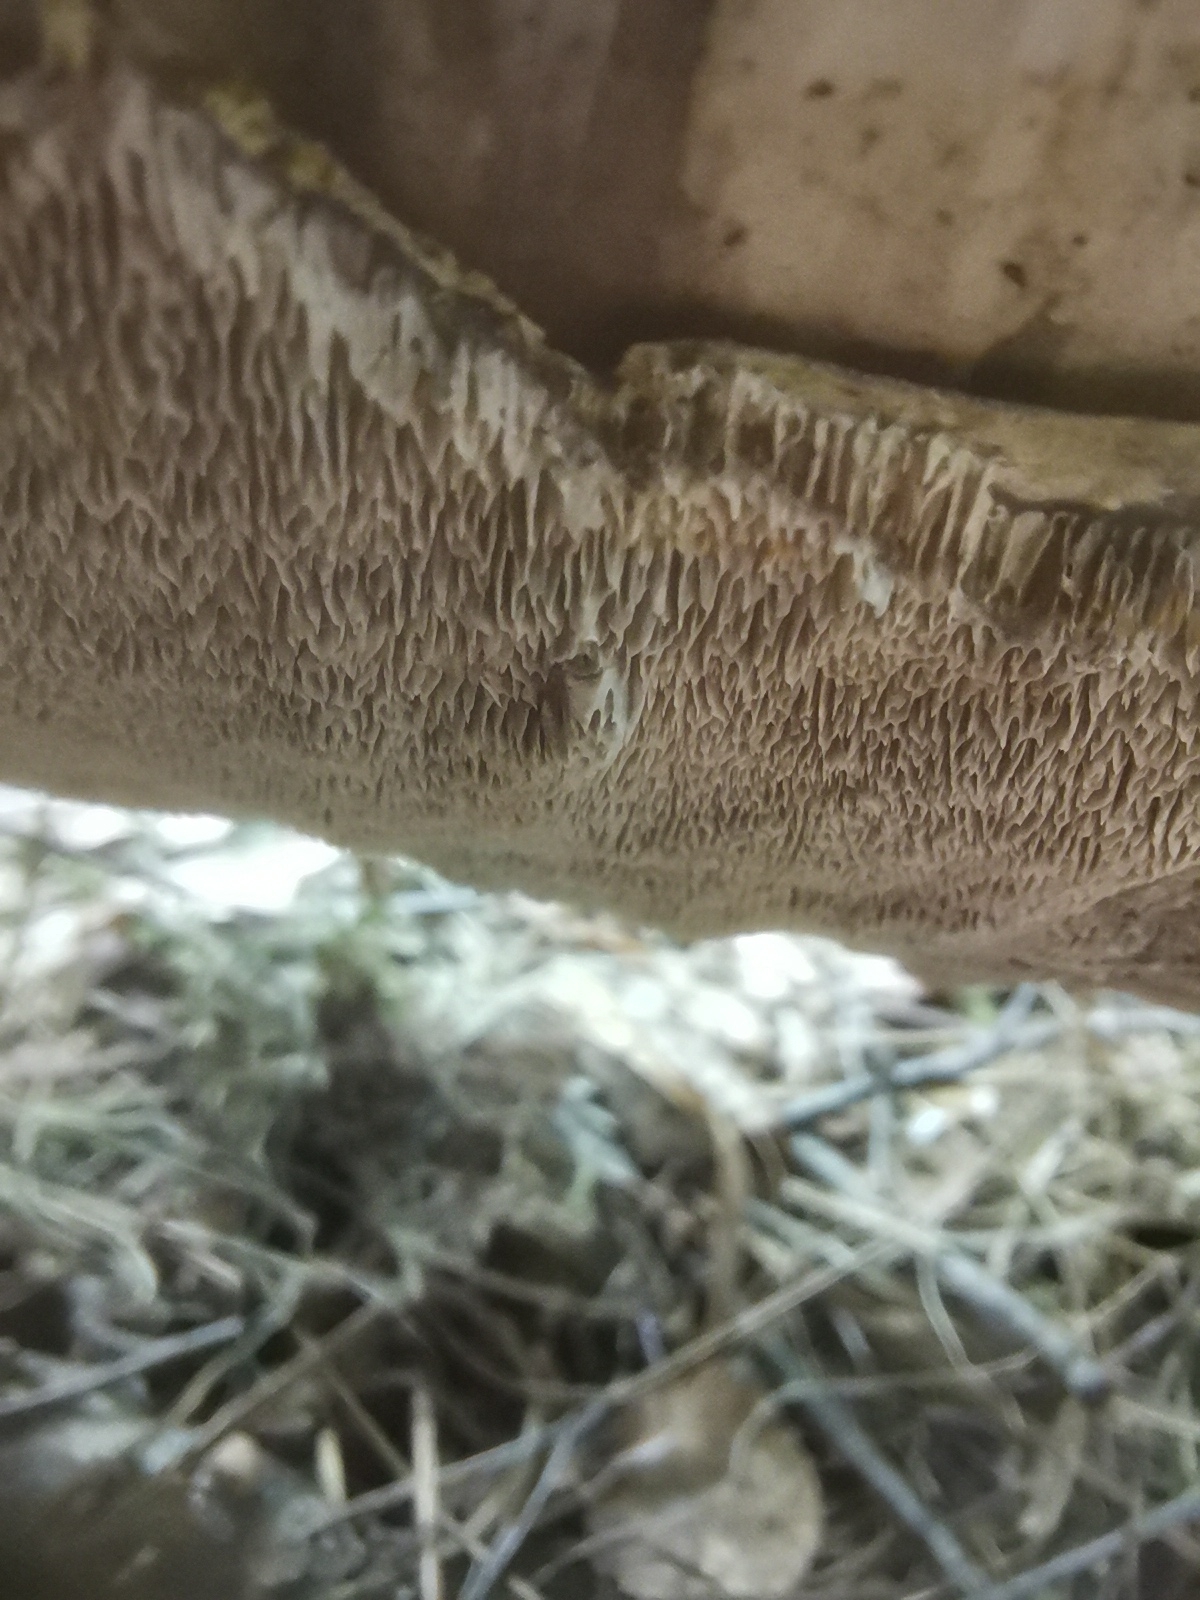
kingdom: Fungi
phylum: Basidiomycota
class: Agaricomycetes
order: Hymenochaetales
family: Hymenochaetaceae
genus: Phellinus
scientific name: Phellinus laevigatus
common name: Smooth bristle bracket
